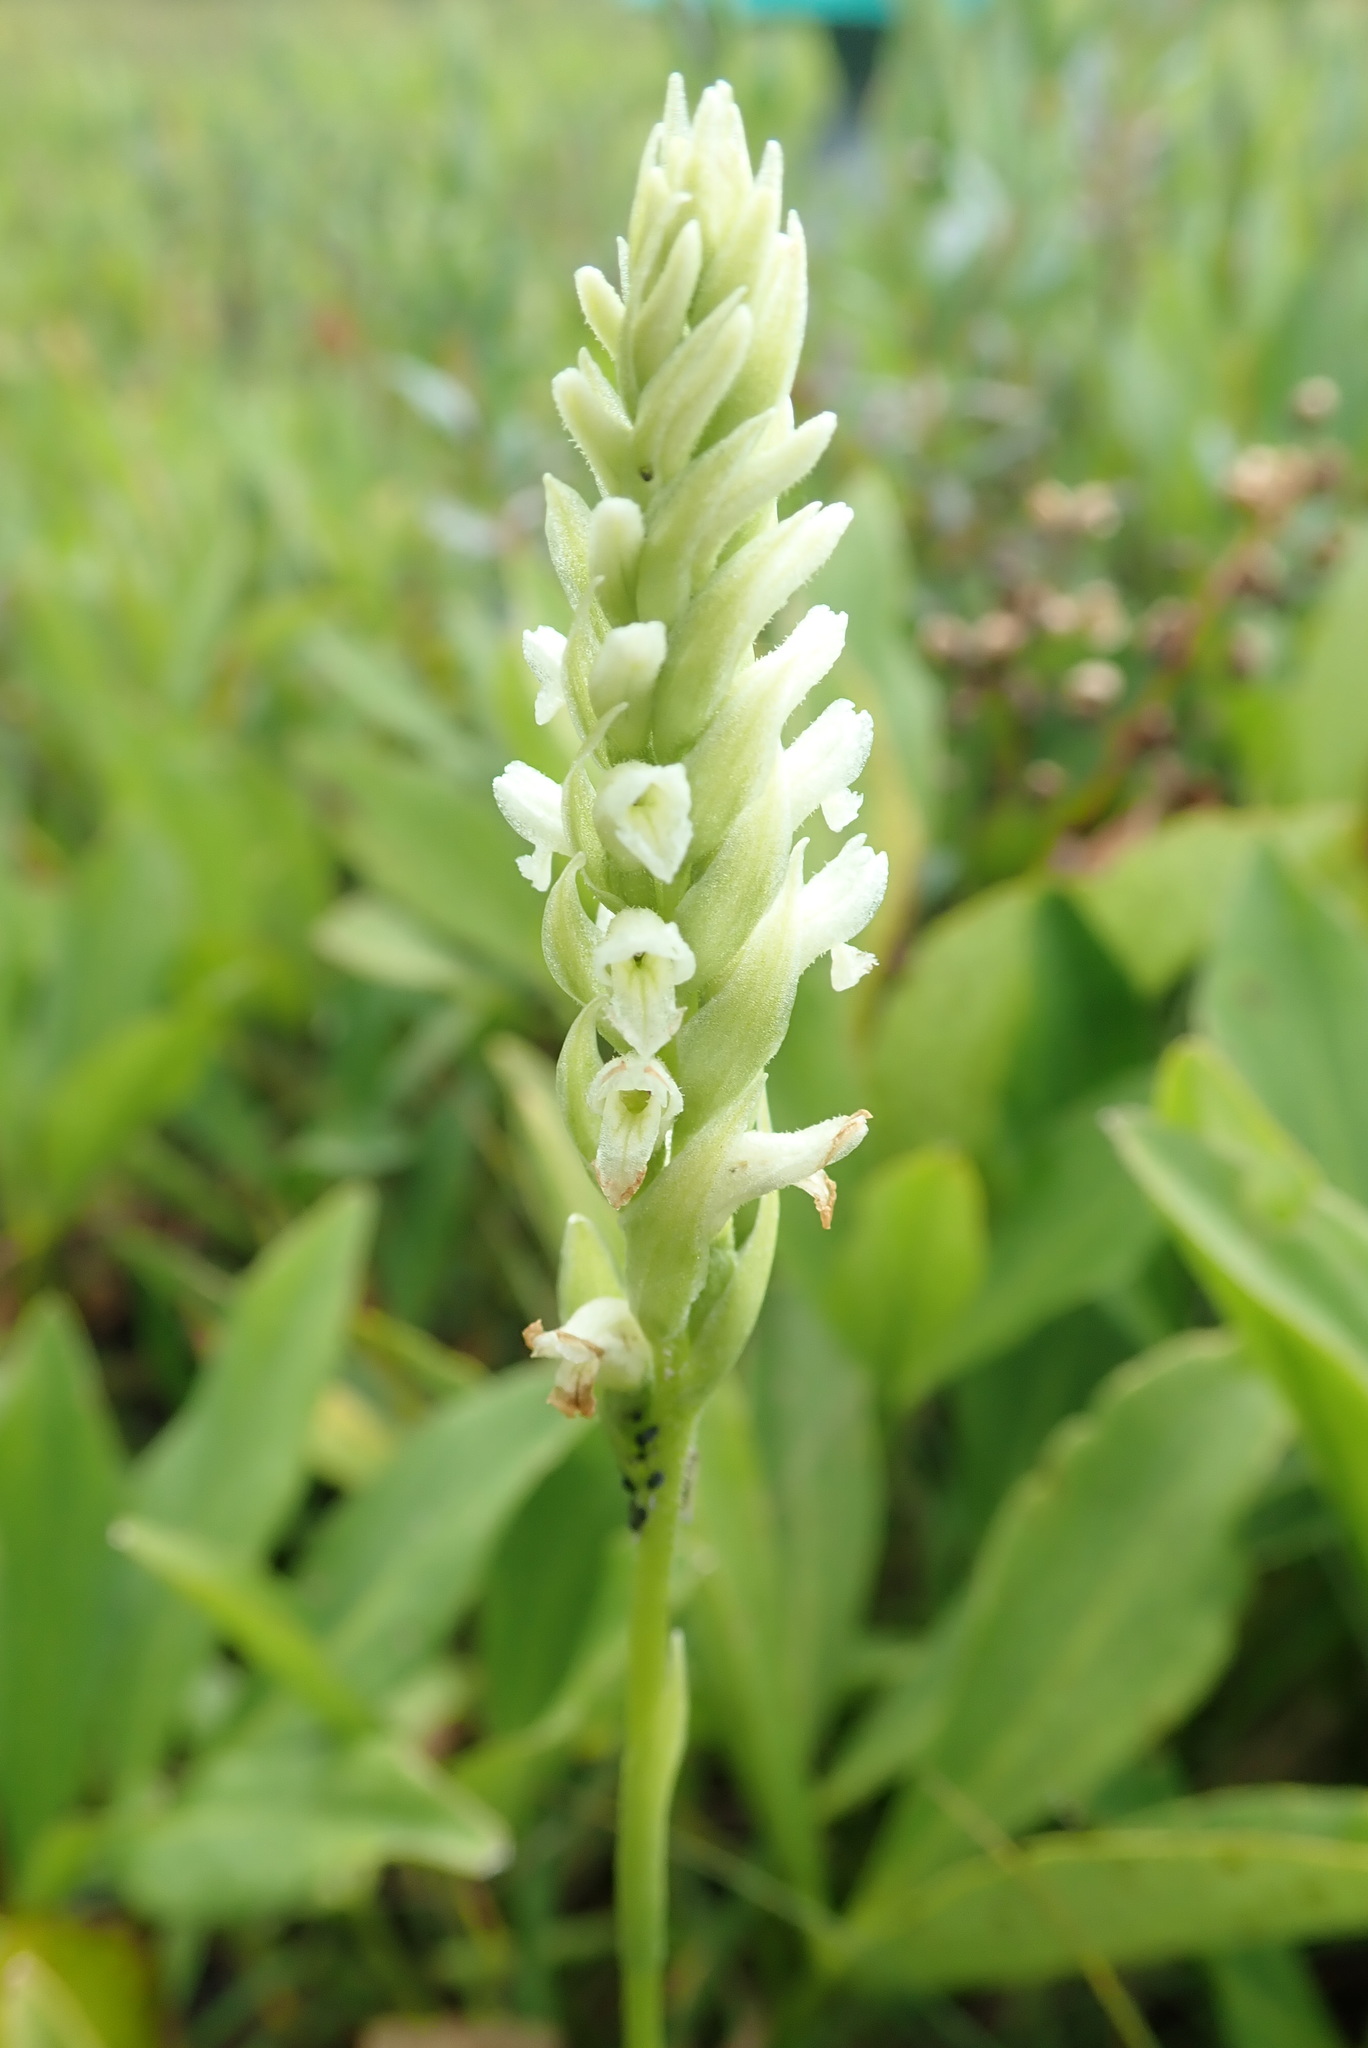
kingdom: Plantae
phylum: Tracheophyta
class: Liliopsida
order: Asparagales
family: Orchidaceae
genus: Spiranthes
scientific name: Spiranthes romanzoffiana
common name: Irish lady's-tresses
